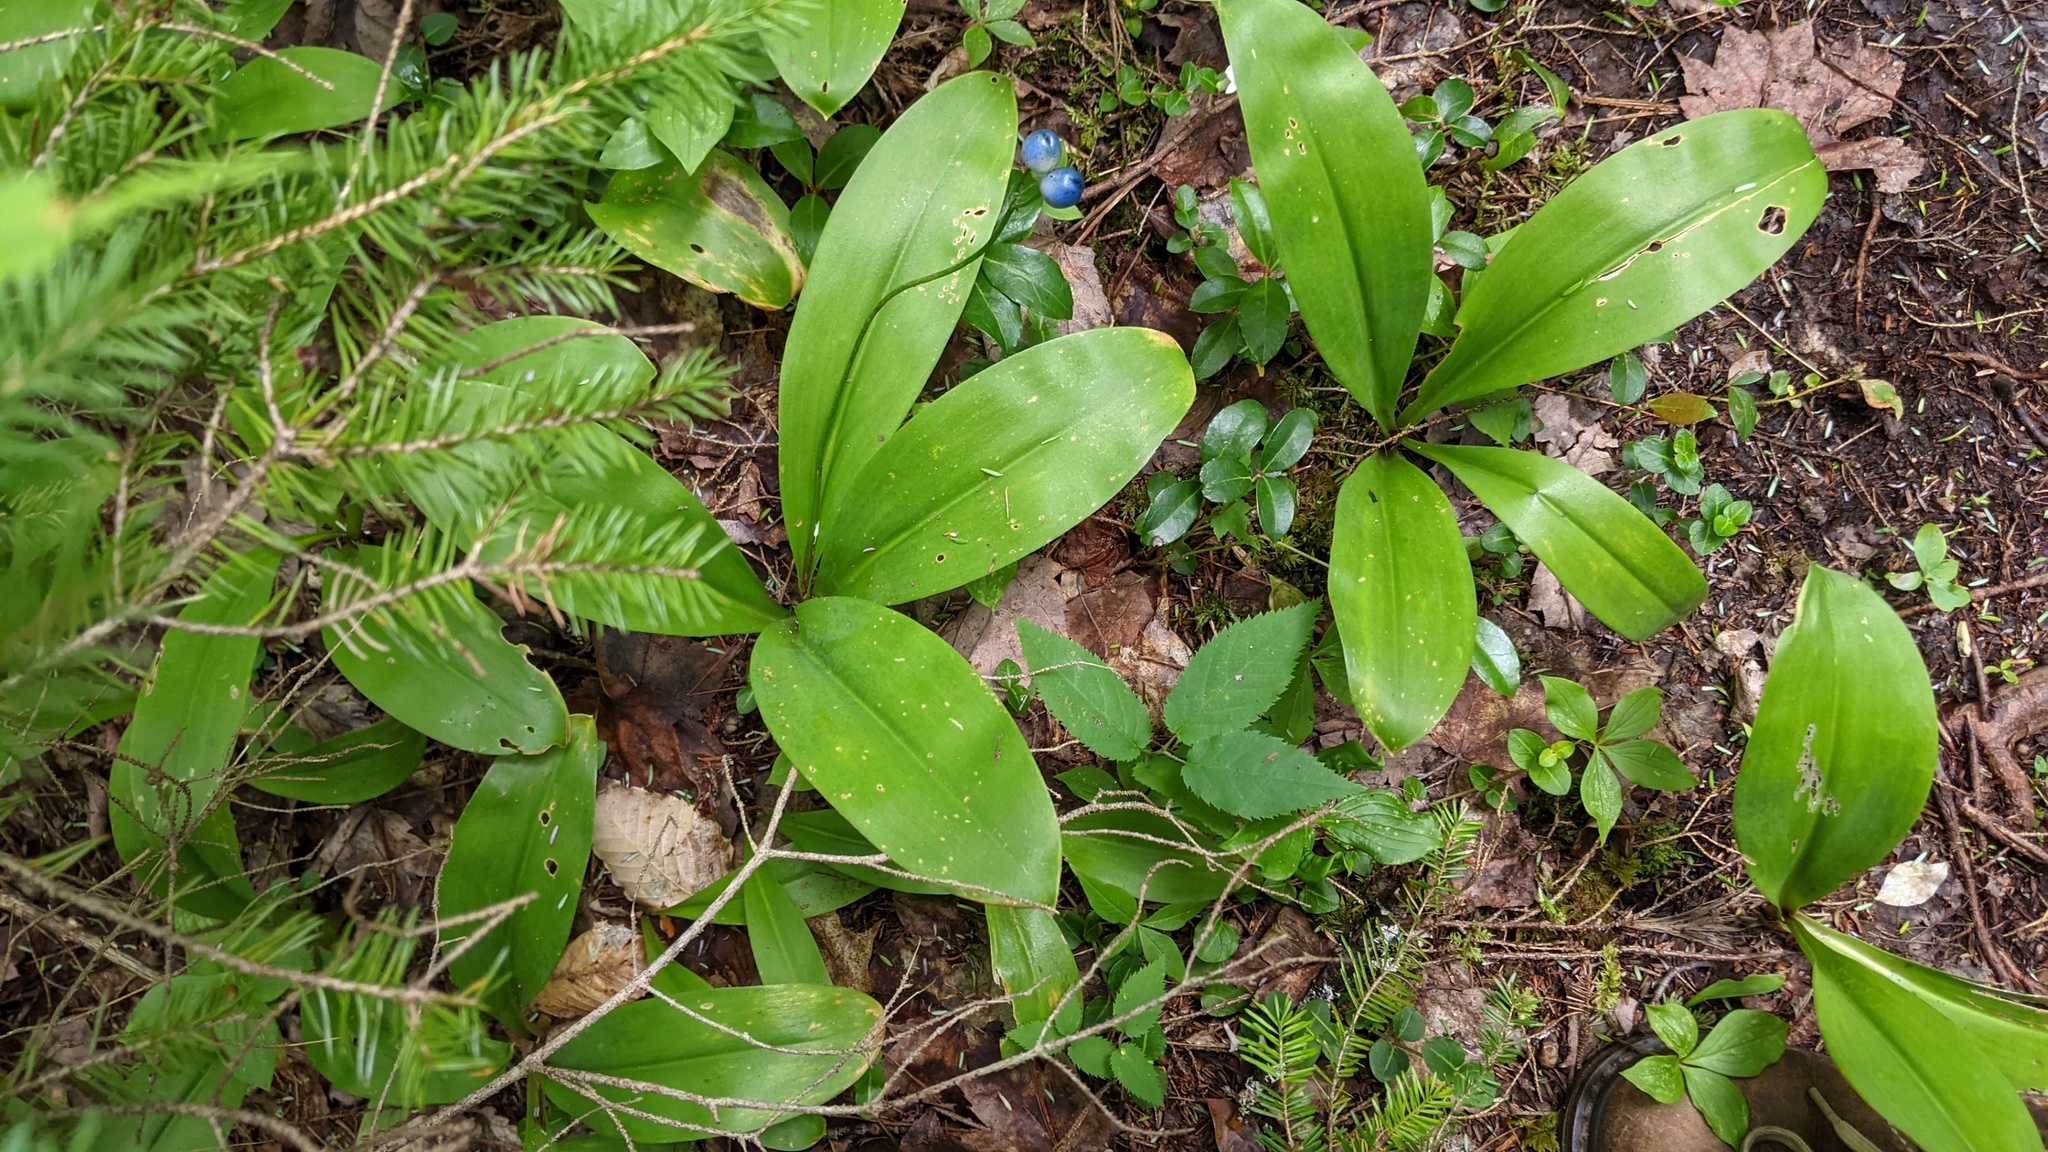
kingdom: Plantae
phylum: Tracheophyta
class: Liliopsida
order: Liliales
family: Liliaceae
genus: Clintonia
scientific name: Clintonia borealis
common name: Yellow clintonia
